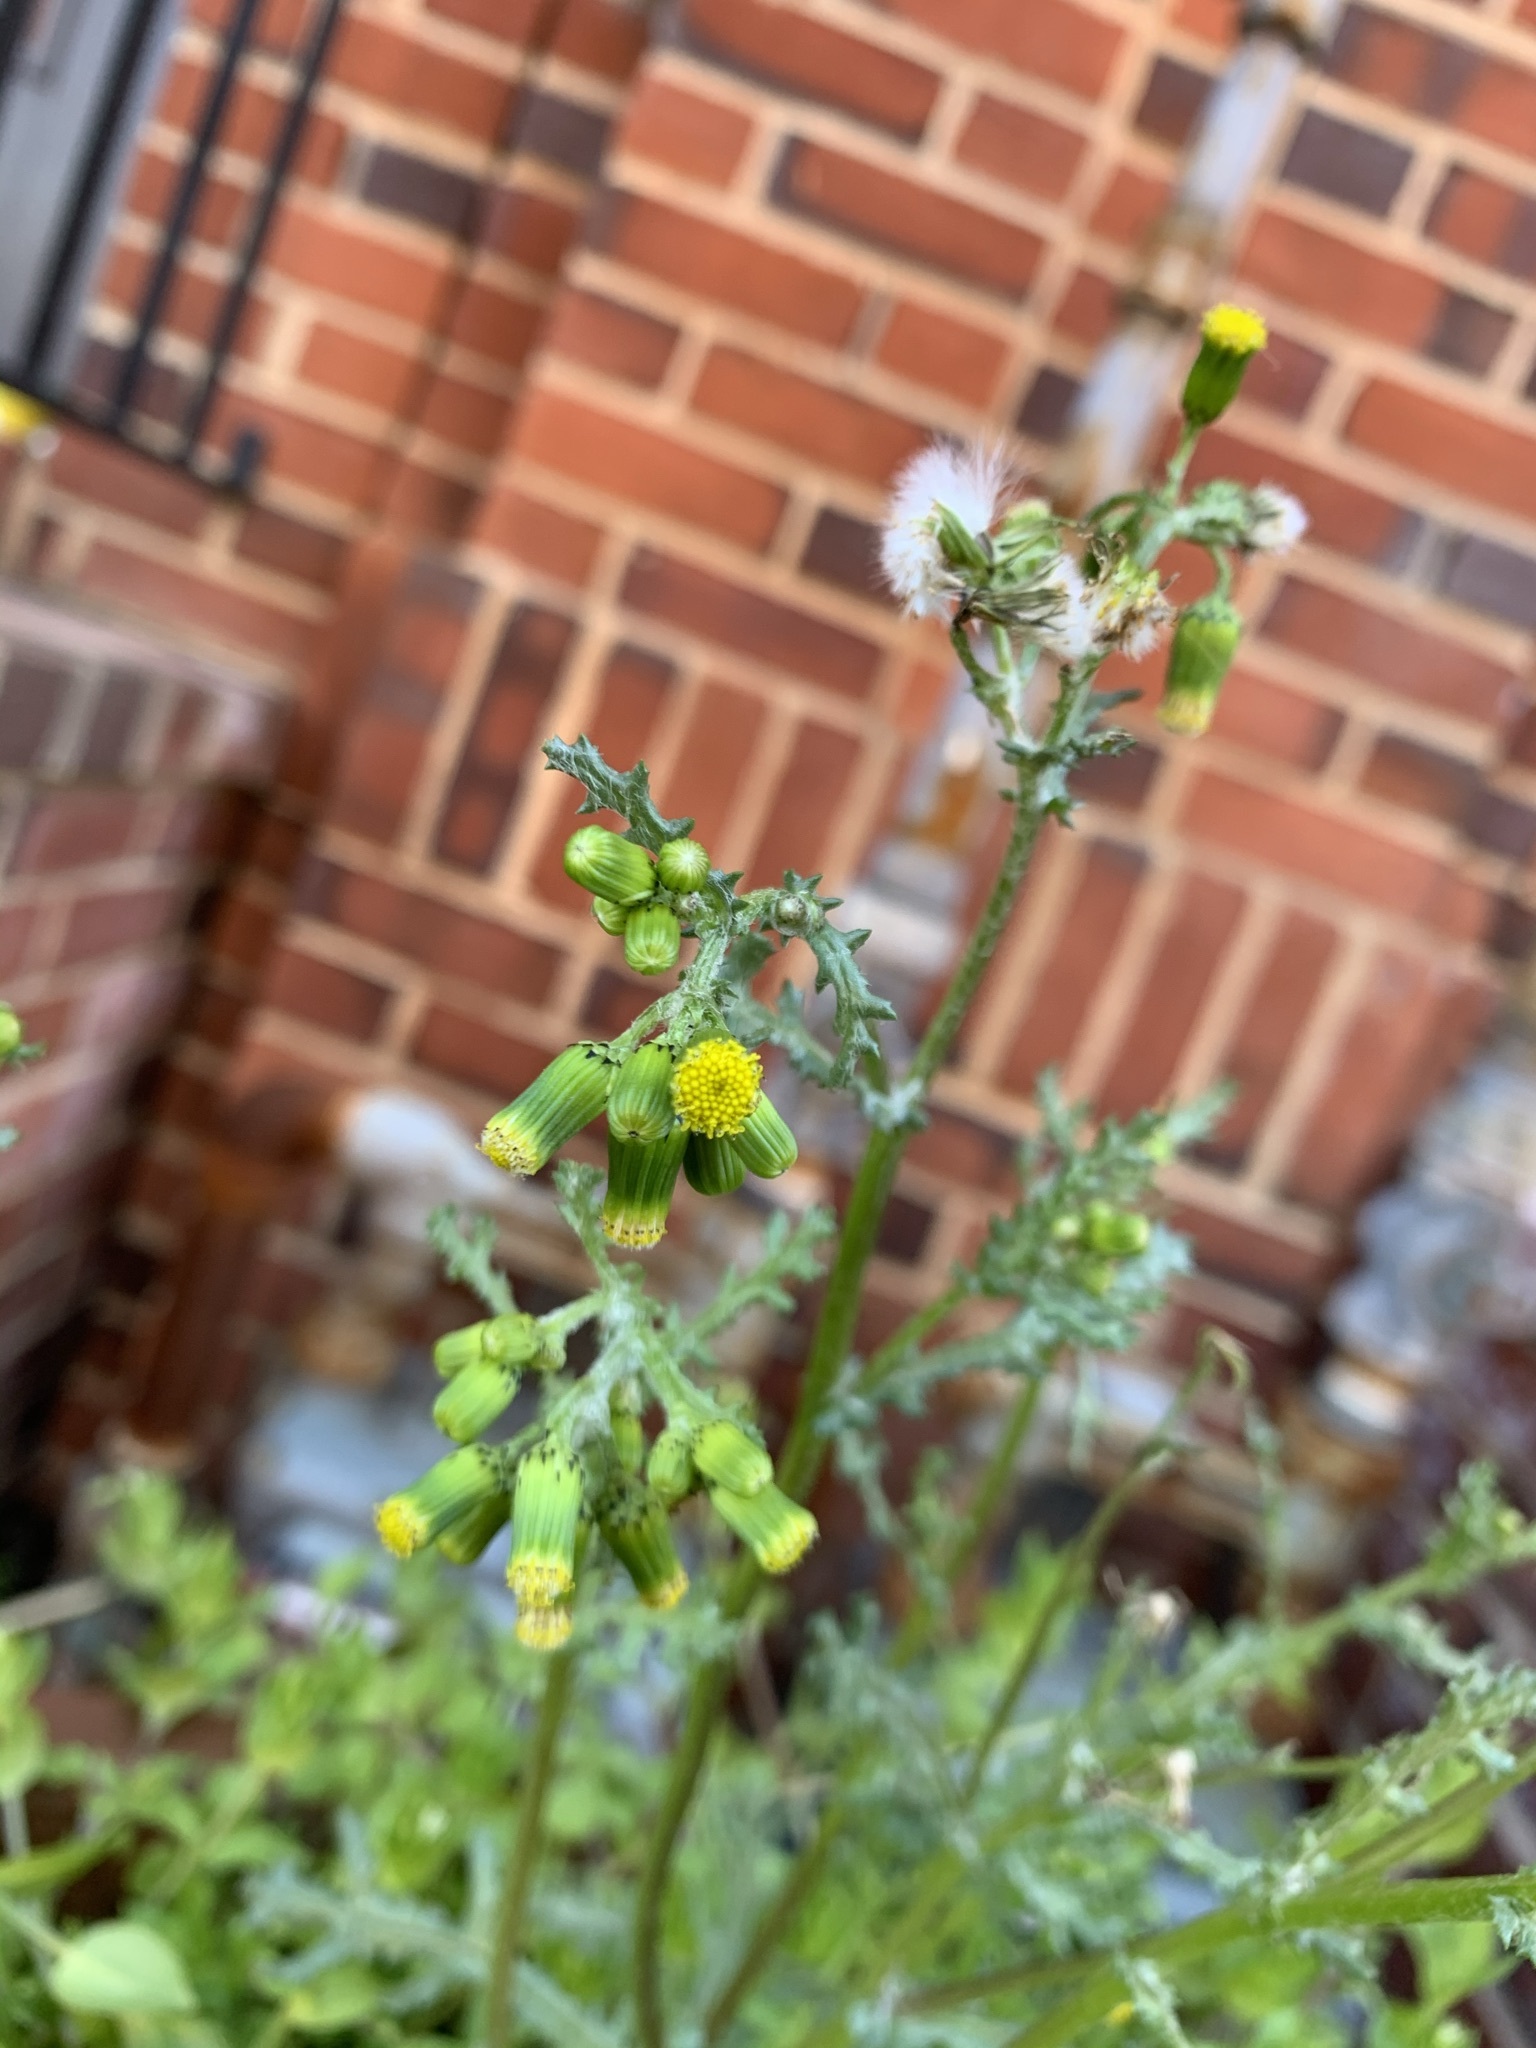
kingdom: Plantae
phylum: Tracheophyta
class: Magnoliopsida
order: Asterales
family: Asteraceae
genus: Senecio
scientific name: Senecio vulgaris
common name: Old-man-in-the-spring
